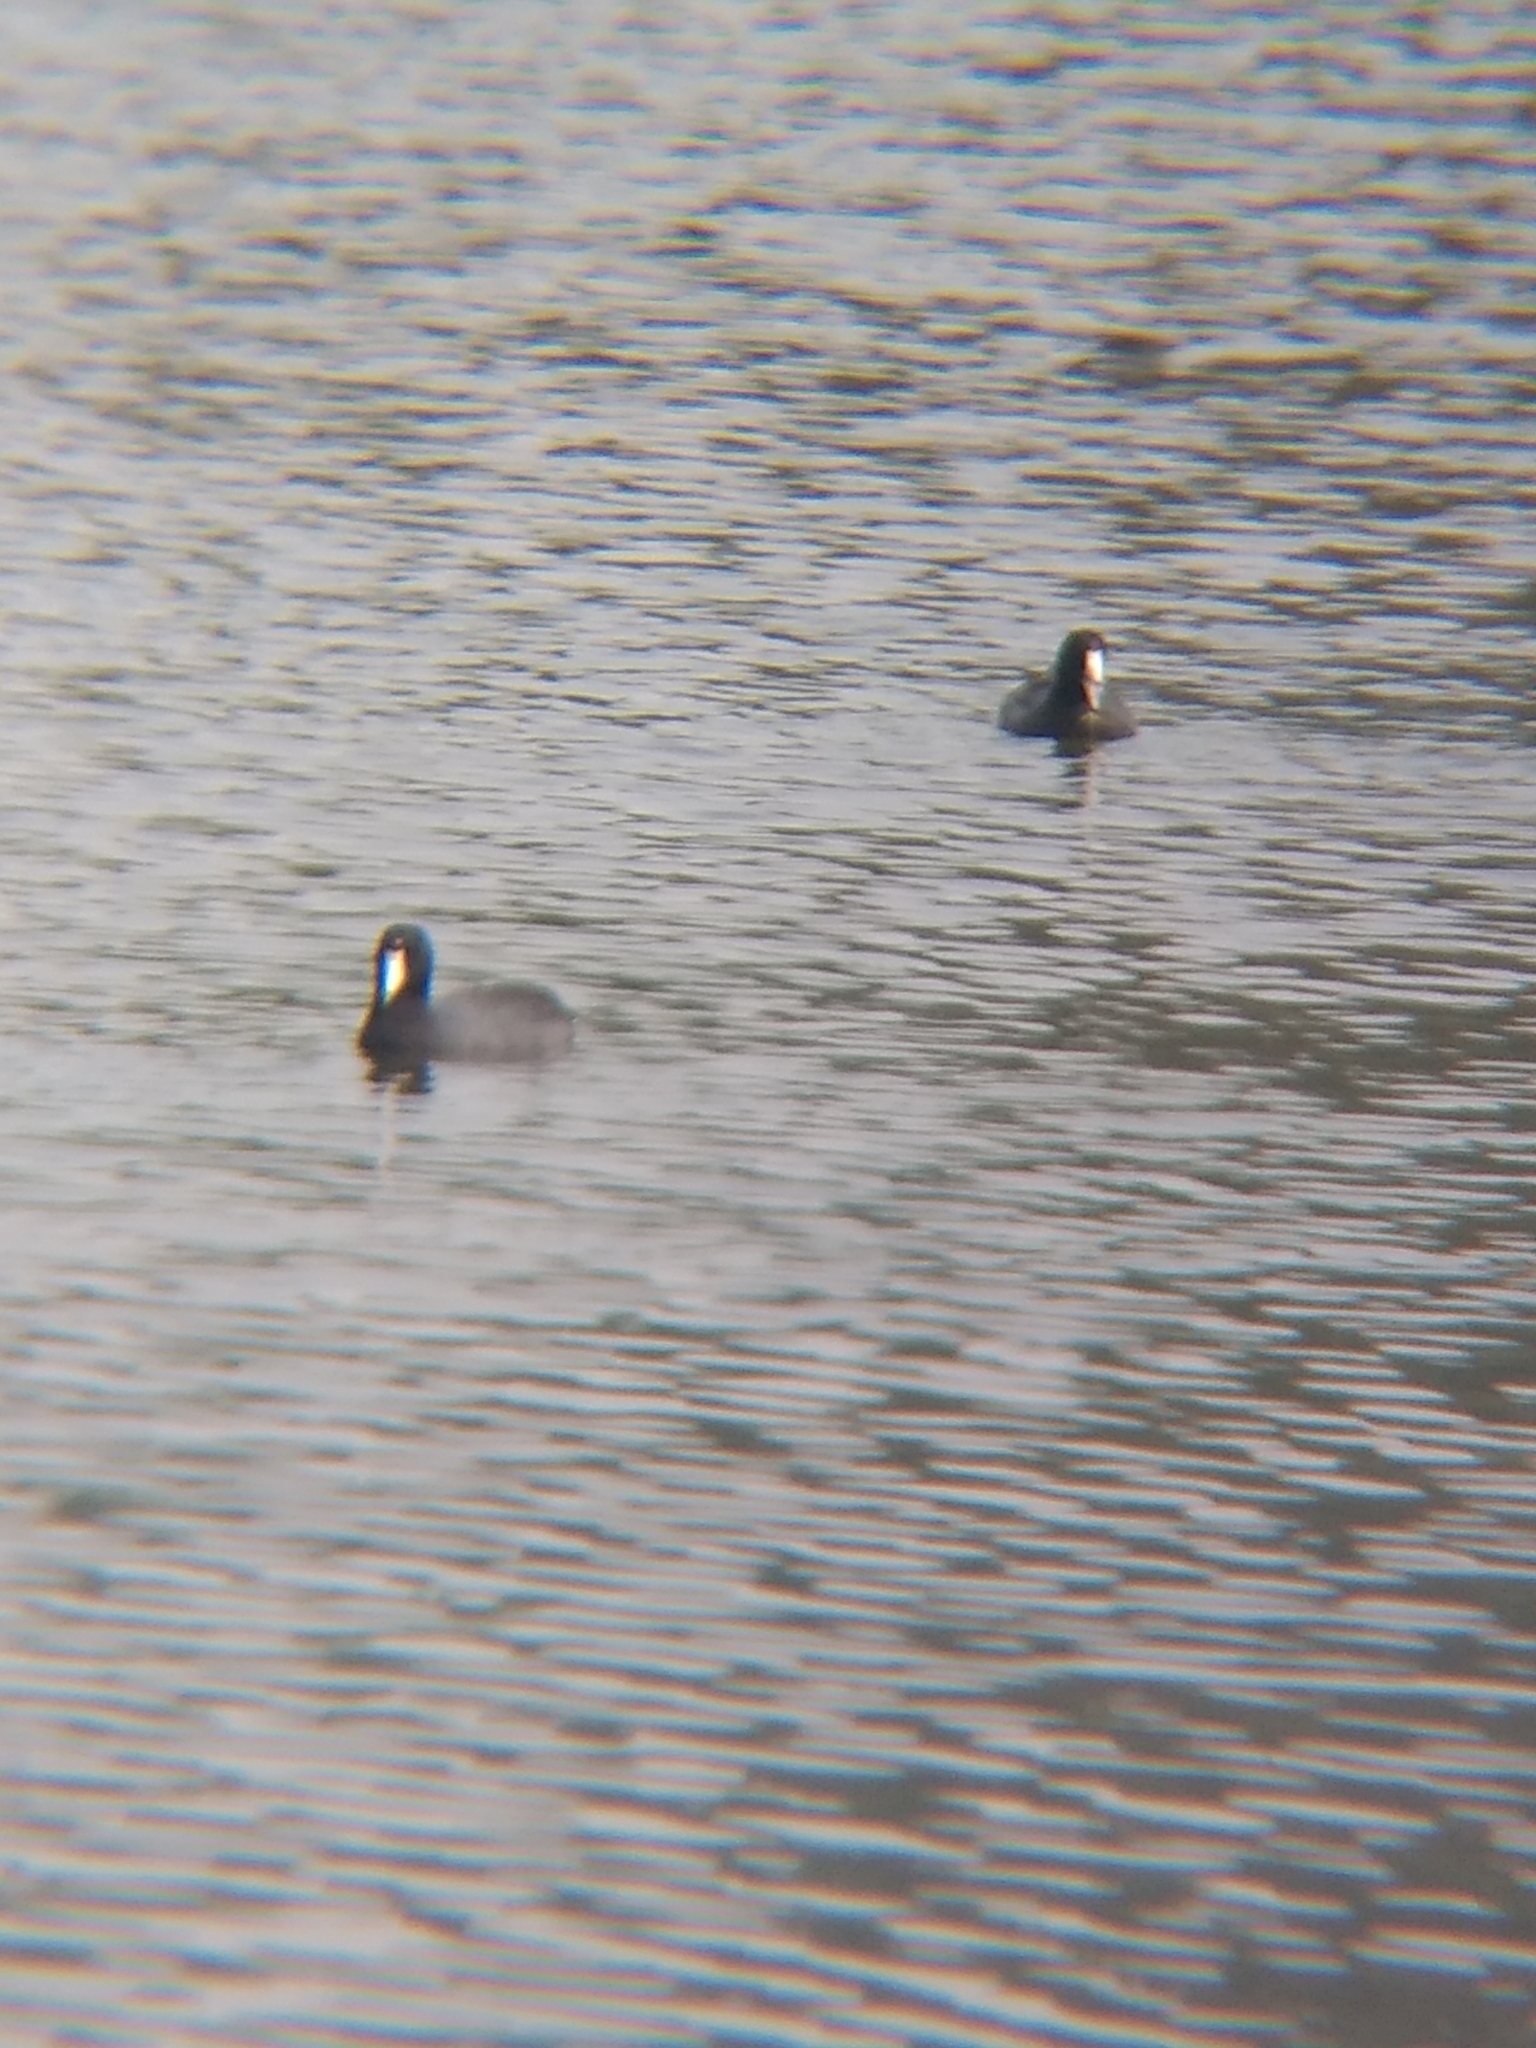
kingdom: Animalia
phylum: Chordata
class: Aves
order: Gruiformes
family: Rallidae
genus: Fulica
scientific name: Fulica americana
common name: American coot
